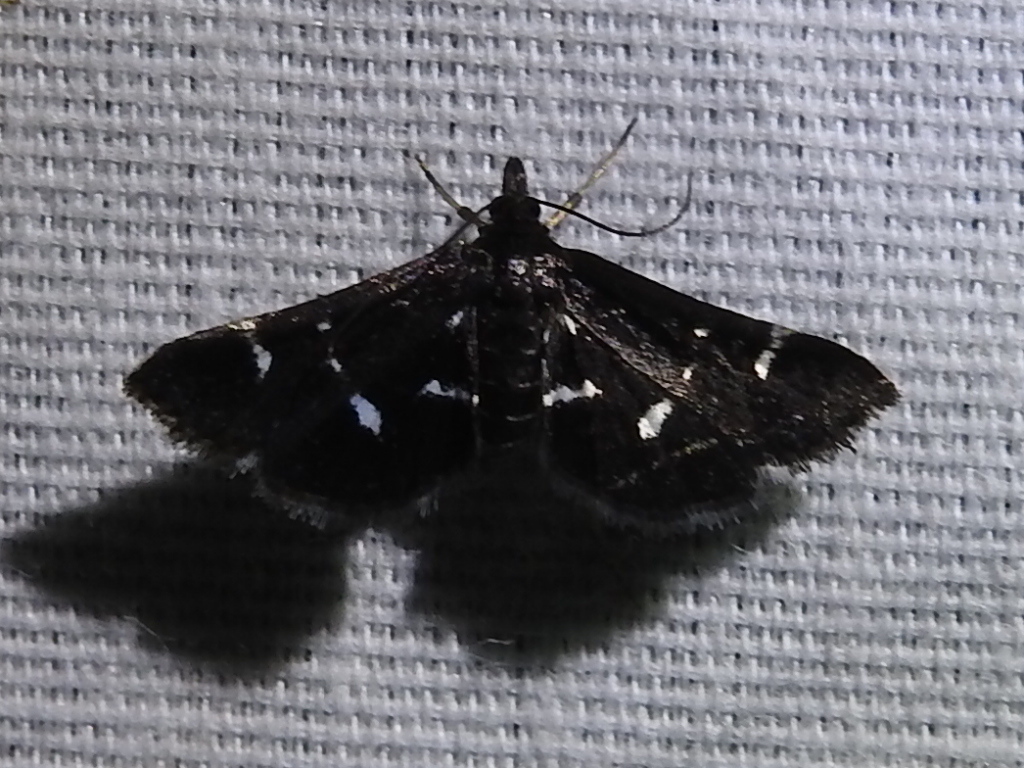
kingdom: Animalia
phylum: Arthropoda
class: Insecta
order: Lepidoptera
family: Crambidae
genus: Diasemiodes
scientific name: Diasemiodes nigralis
